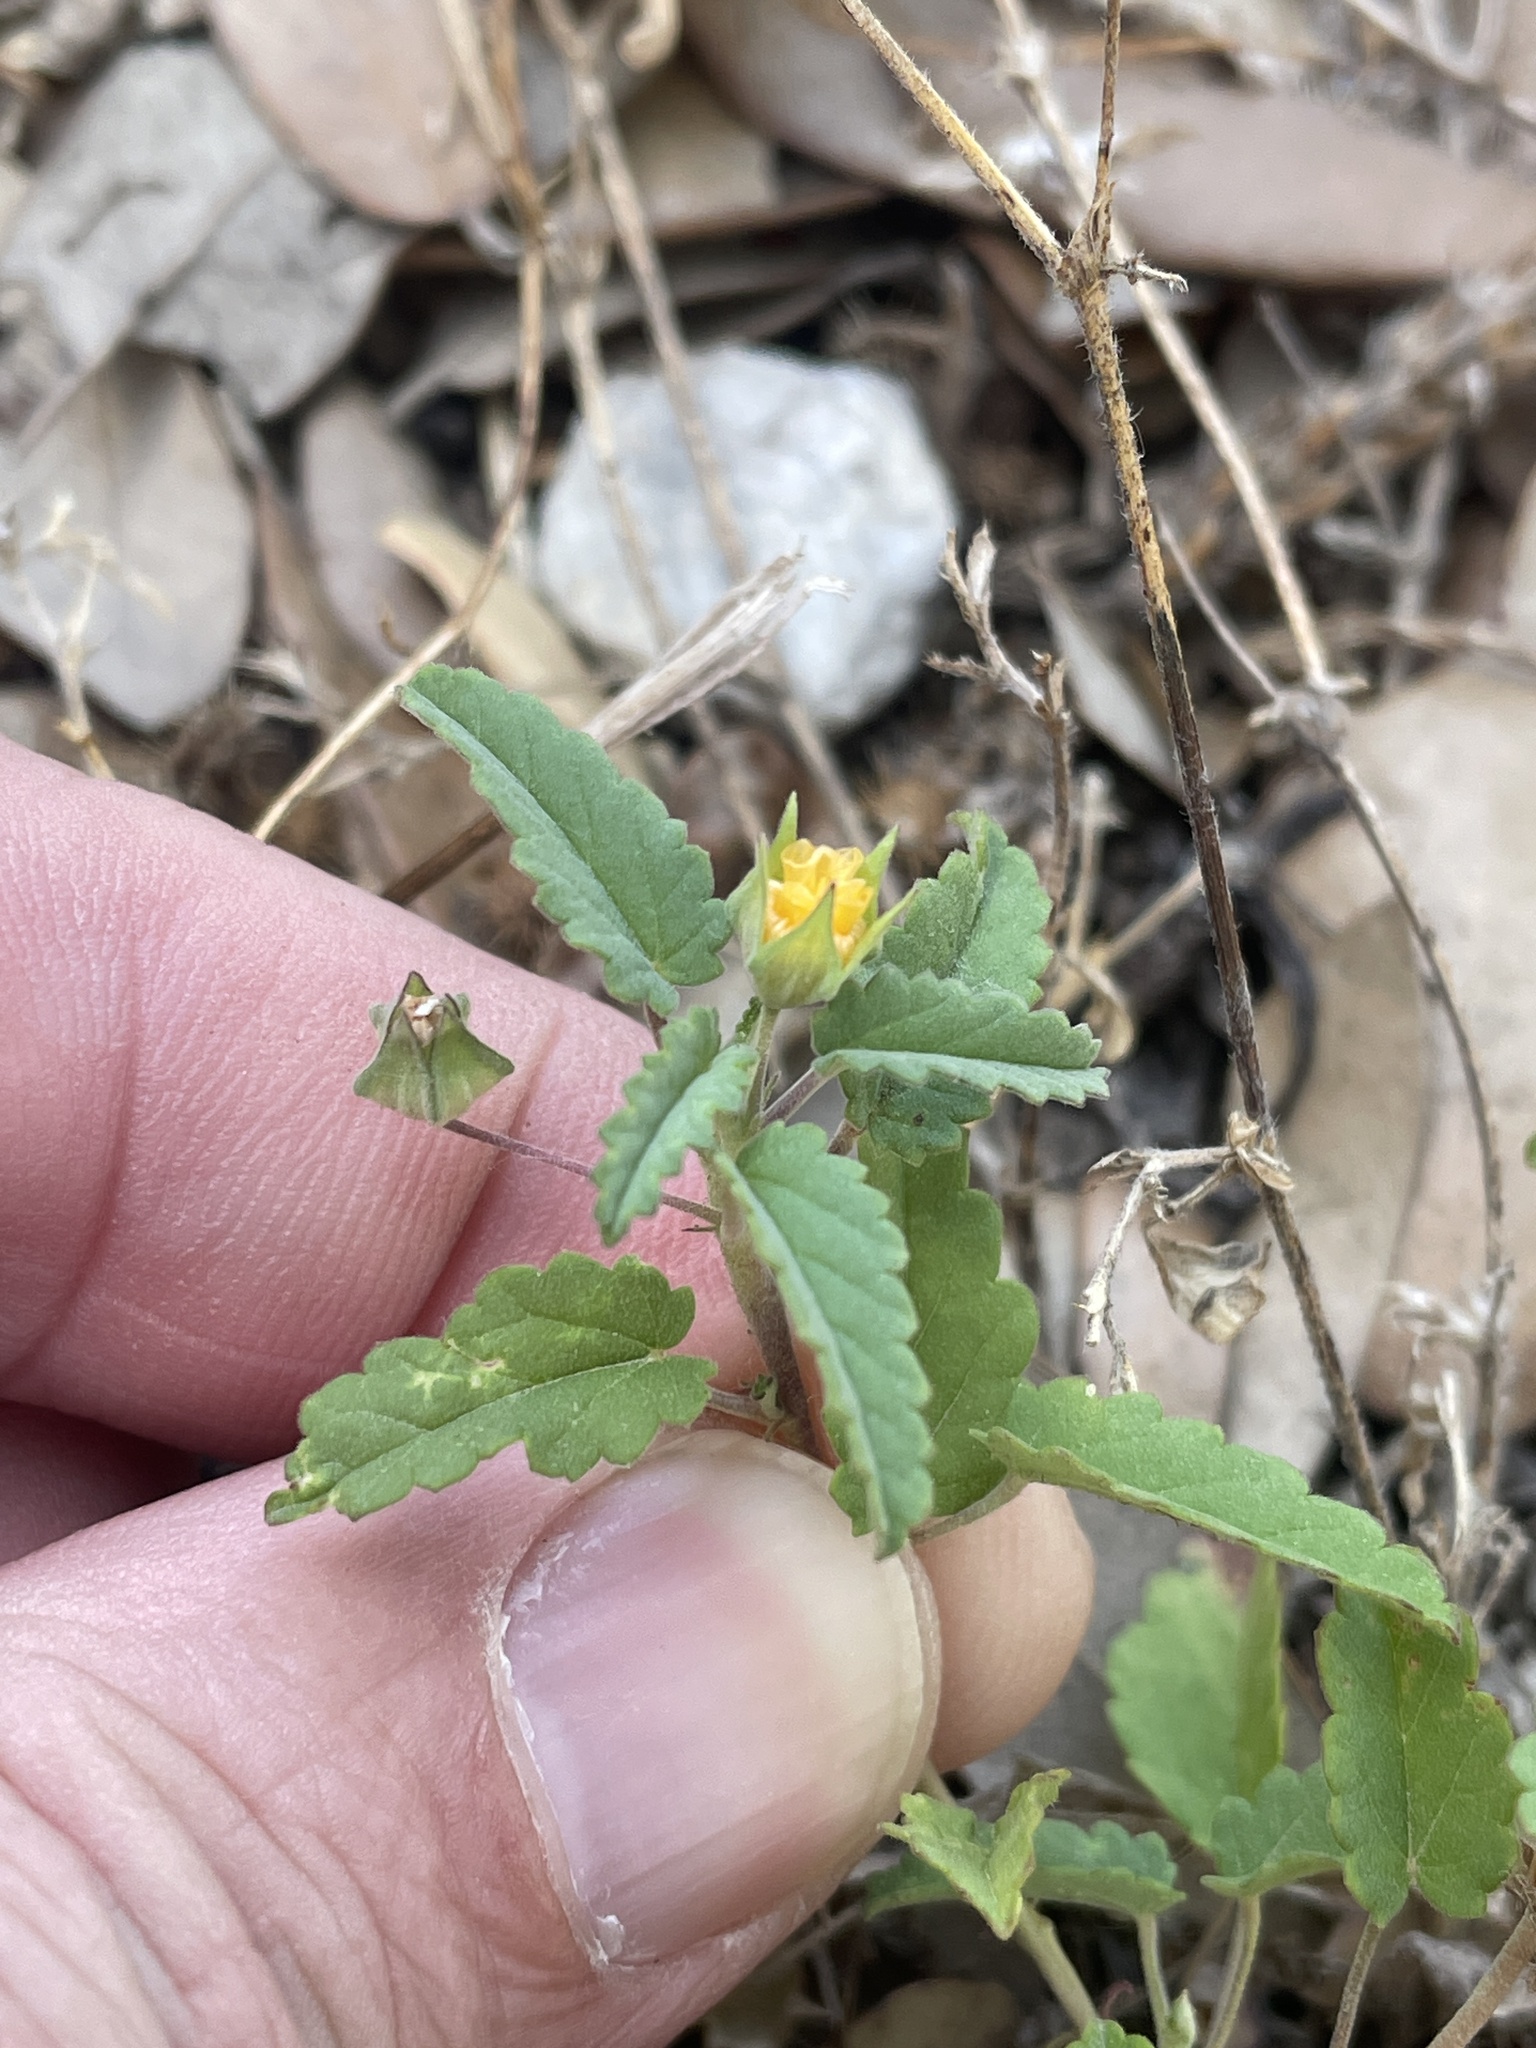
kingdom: Plantae
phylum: Tracheophyta
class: Magnoliopsida
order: Malvales
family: Malvaceae
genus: Sida
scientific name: Sida abutilifolia
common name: Spreading fanpetals
